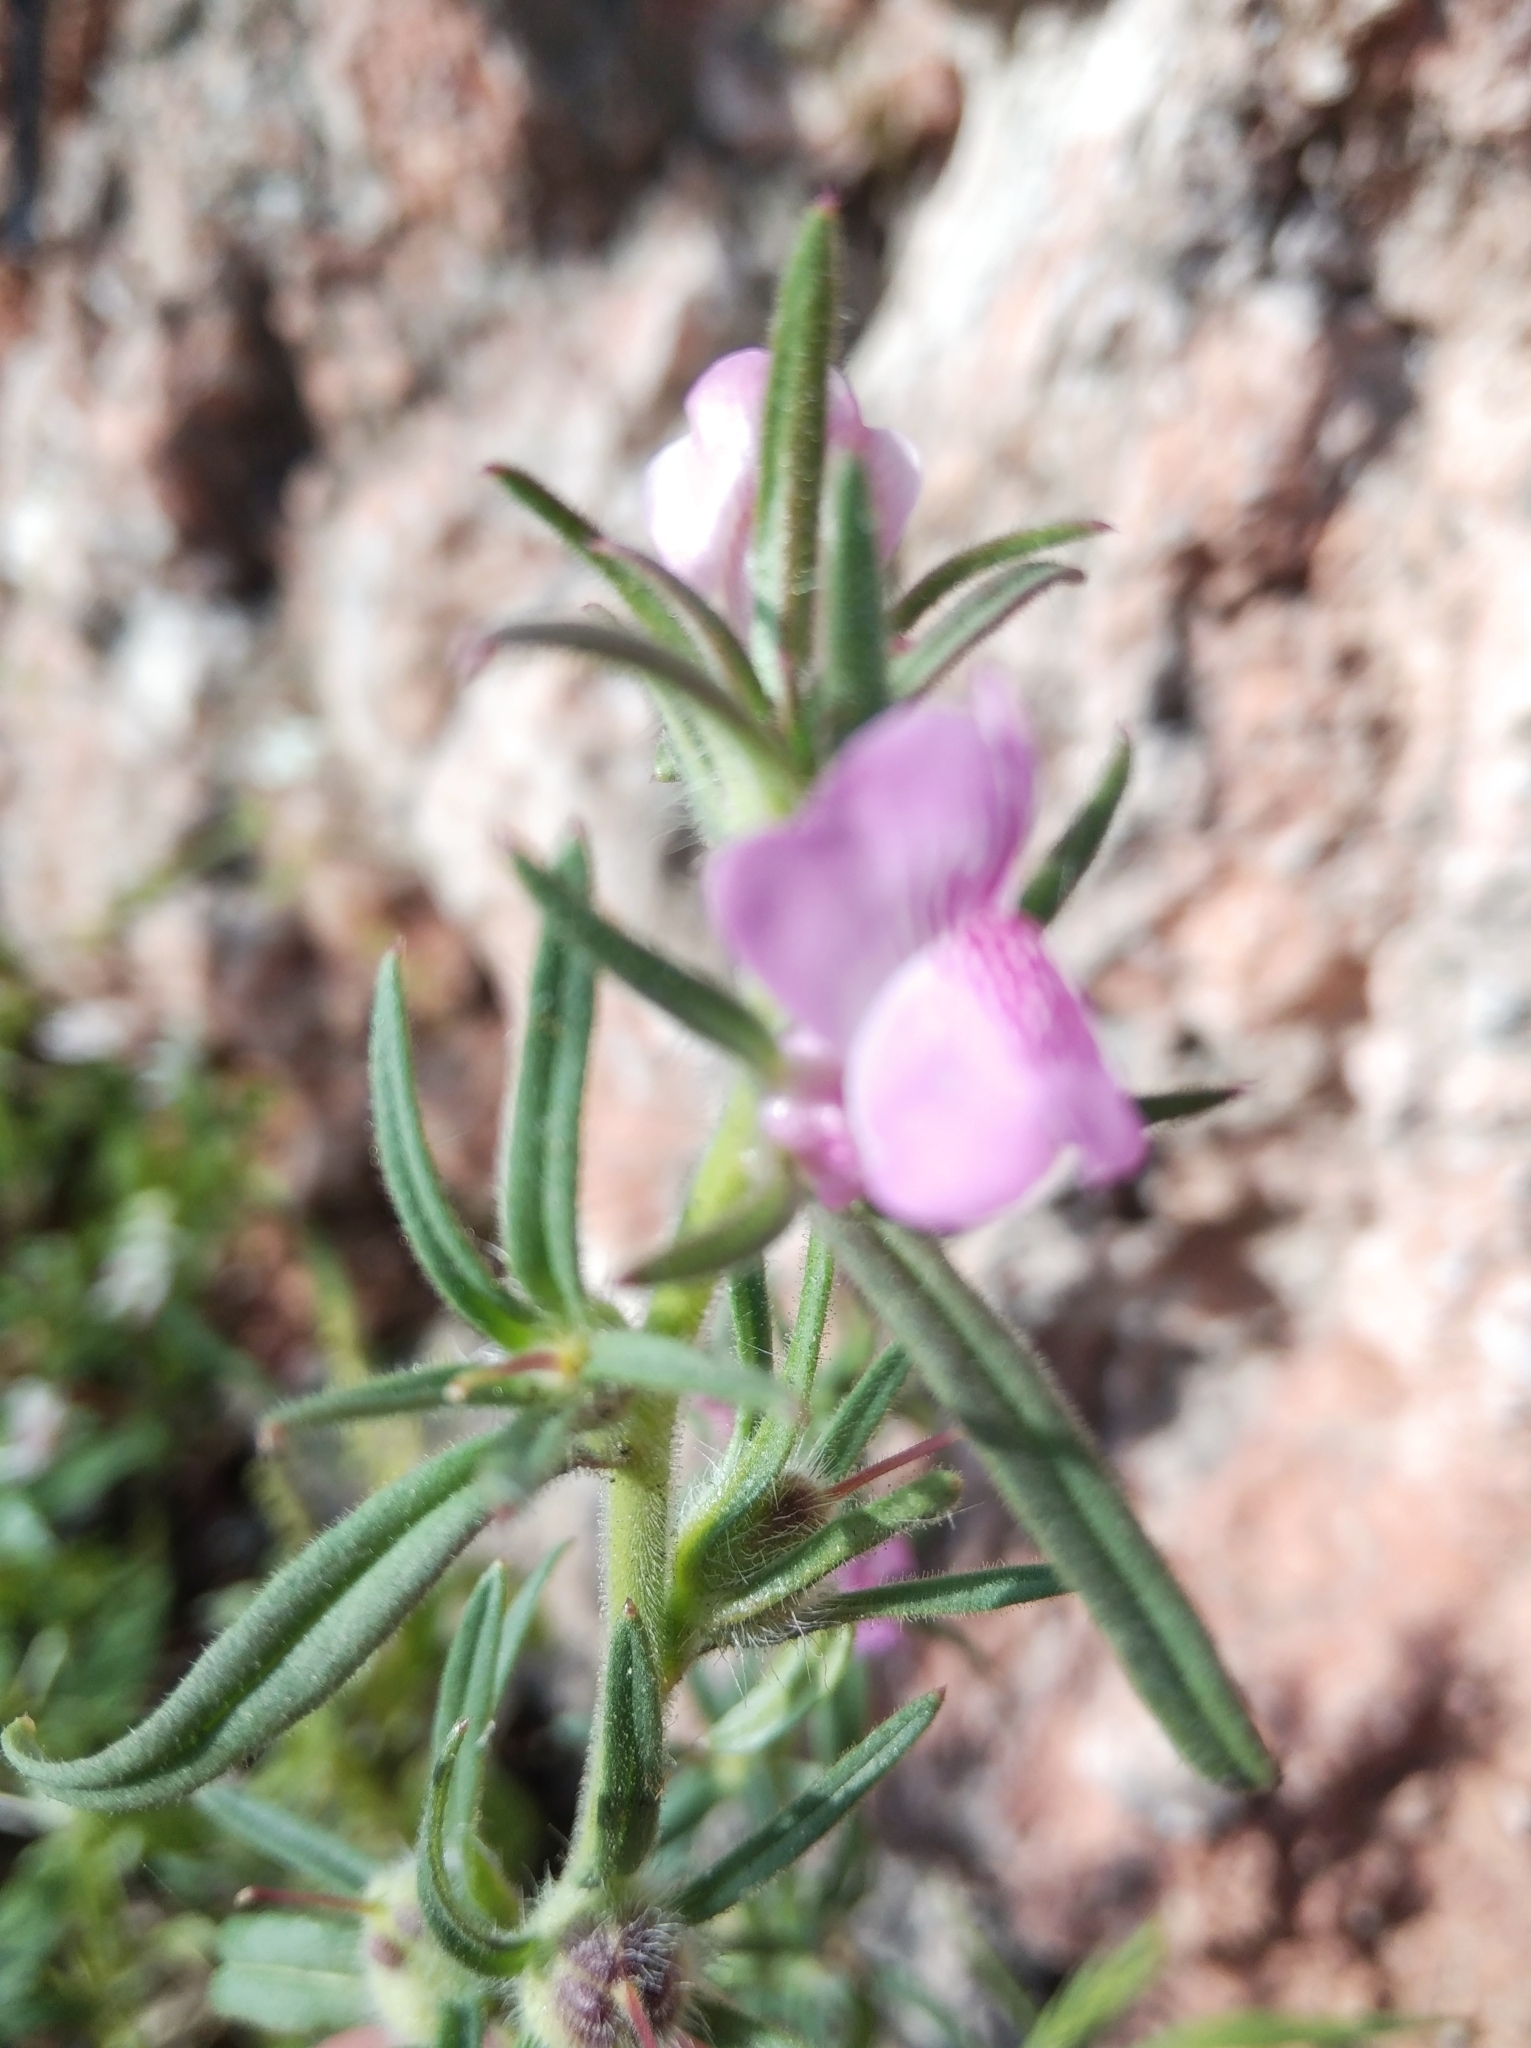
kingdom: Plantae
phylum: Tracheophyta
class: Magnoliopsida
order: Lamiales
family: Plantaginaceae
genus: Misopates
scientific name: Misopates orontium
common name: Weasel's-snout
